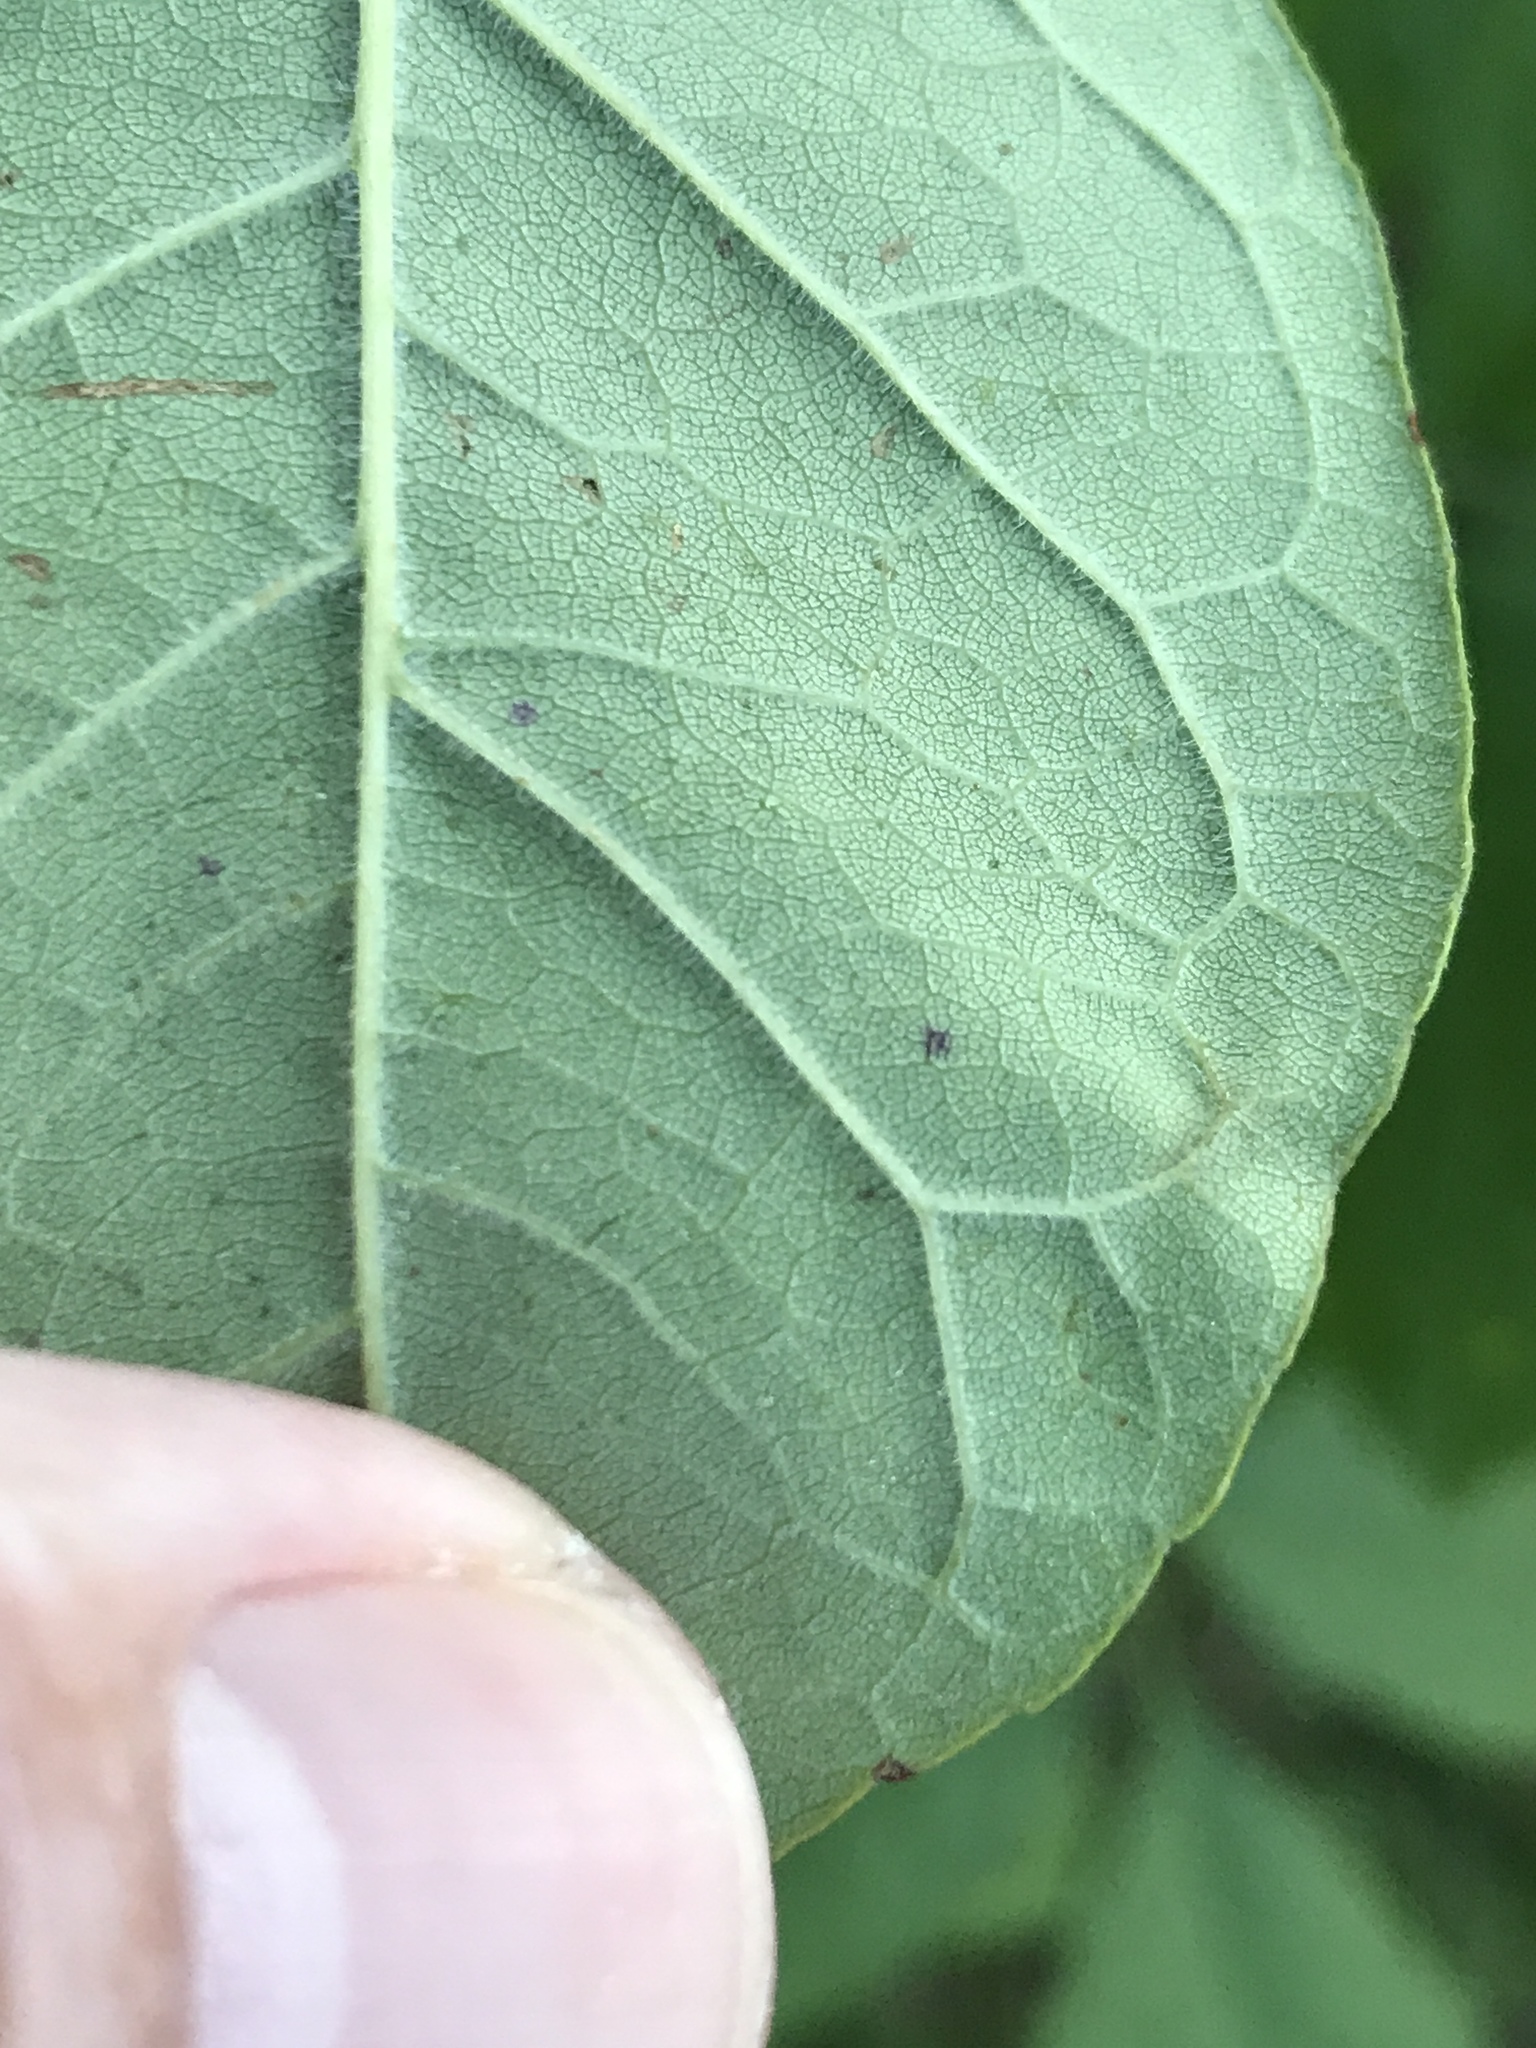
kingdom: Plantae
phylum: Tracheophyta
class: Magnoliopsida
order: Lamiales
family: Oleaceae
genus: Fraxinus
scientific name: Fraxinus americana
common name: White ash
